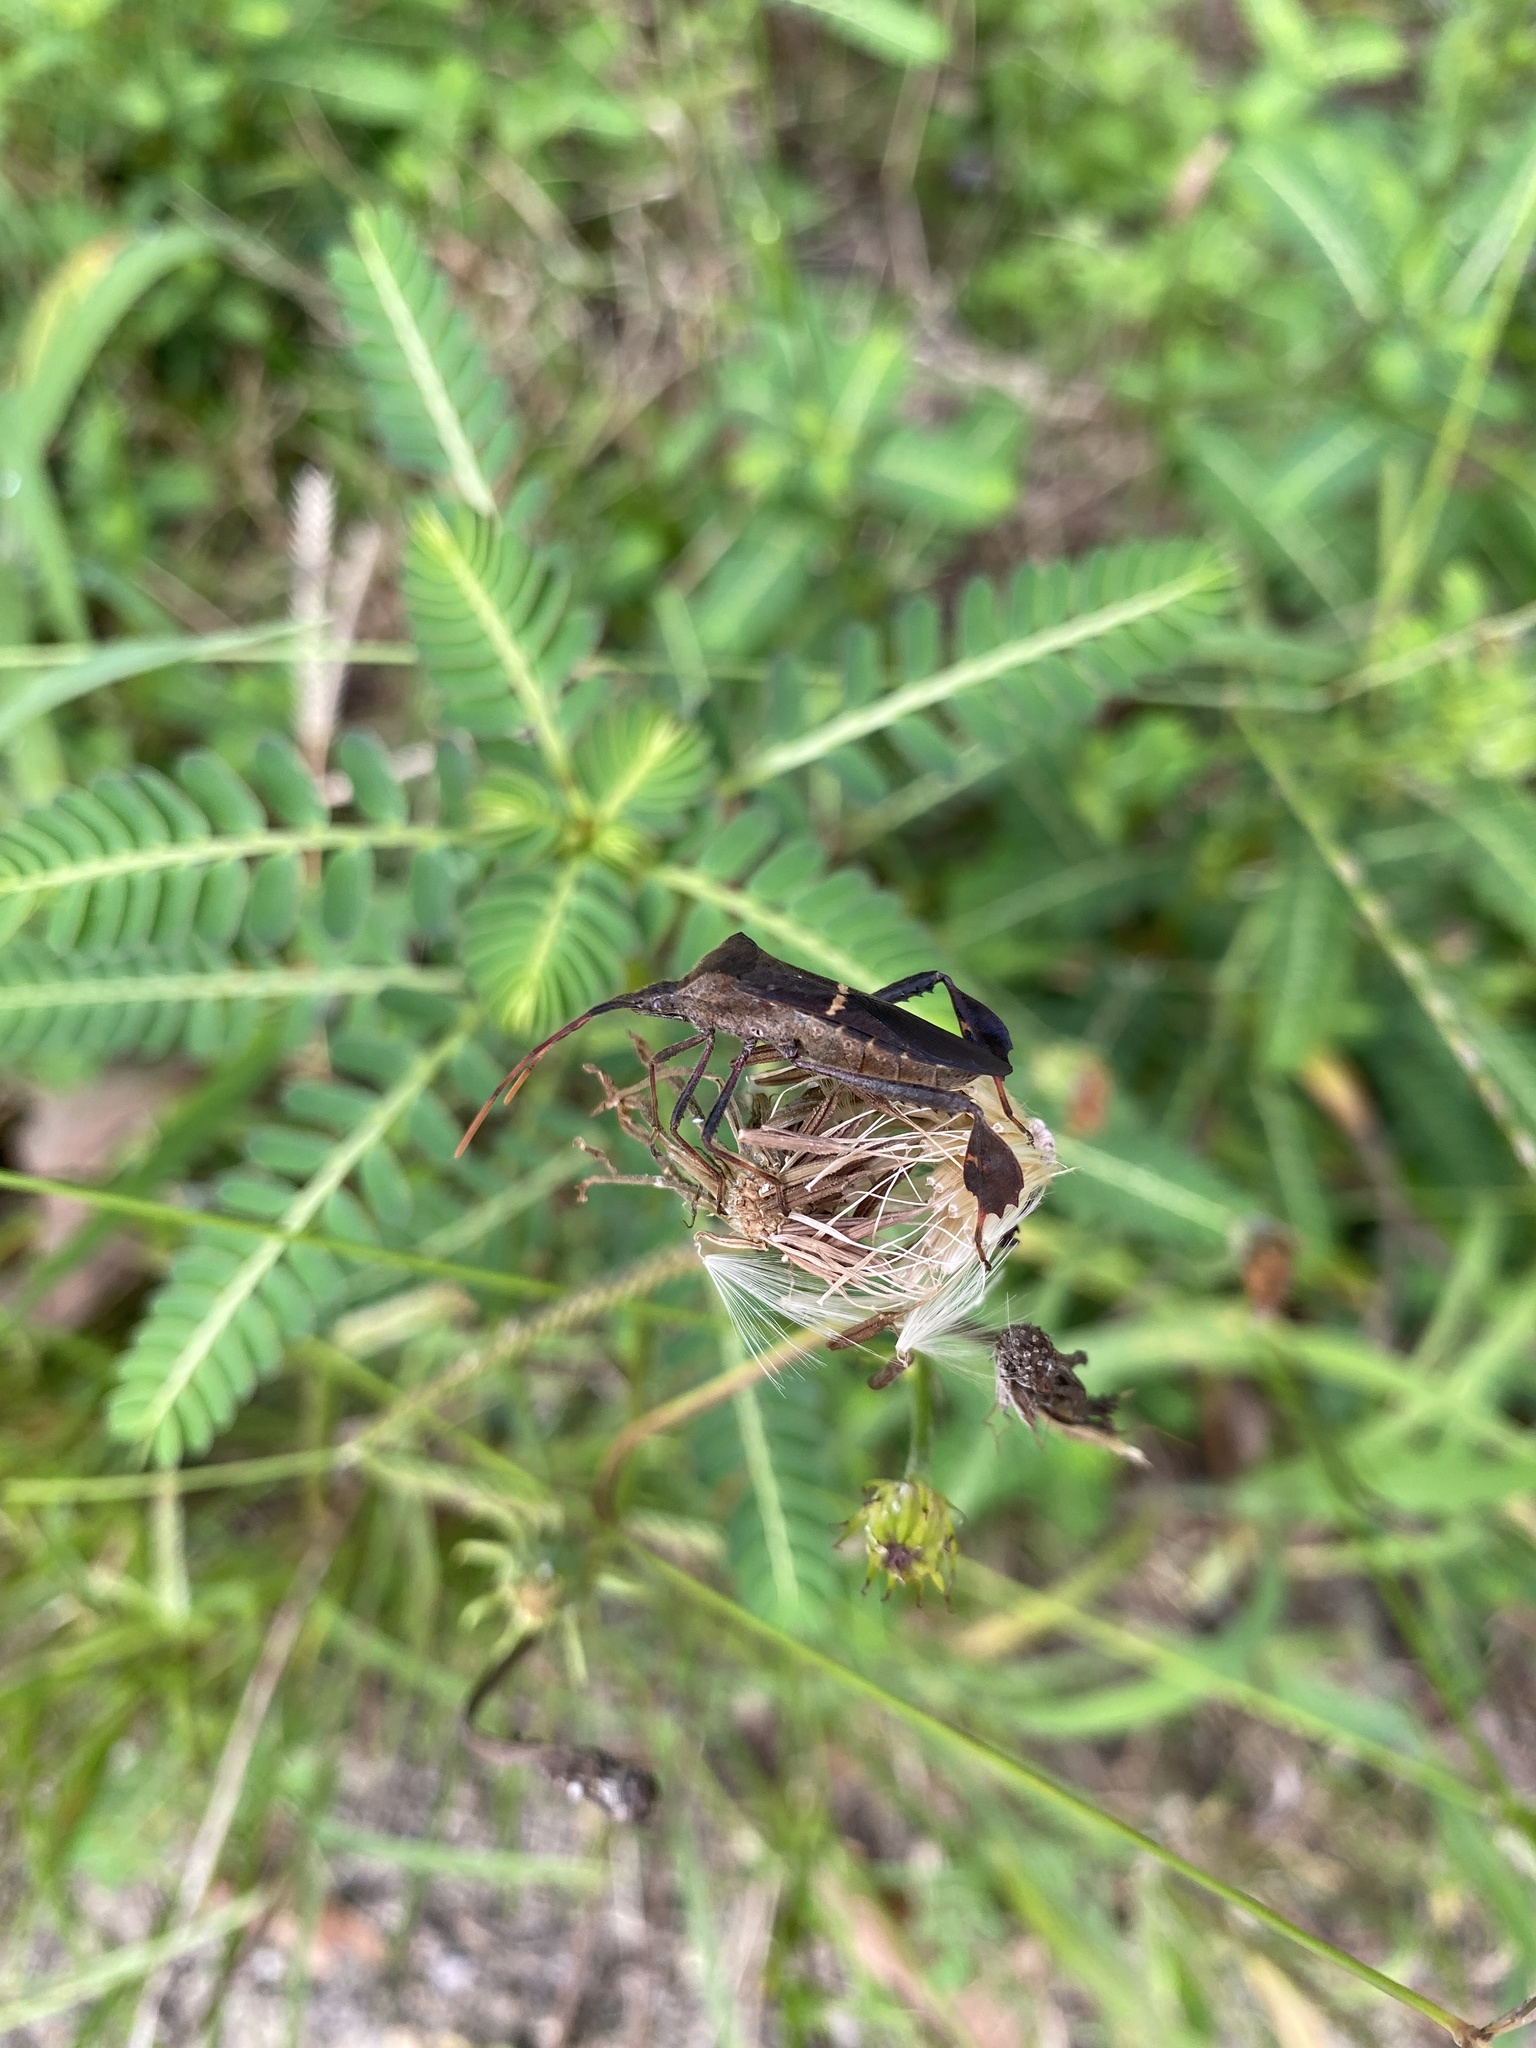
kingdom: Animalia
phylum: Arthropoda
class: Insecta
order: Hemiptera
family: Coreidae
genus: Leptoglossus
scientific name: Leptoglossus phyllopus
